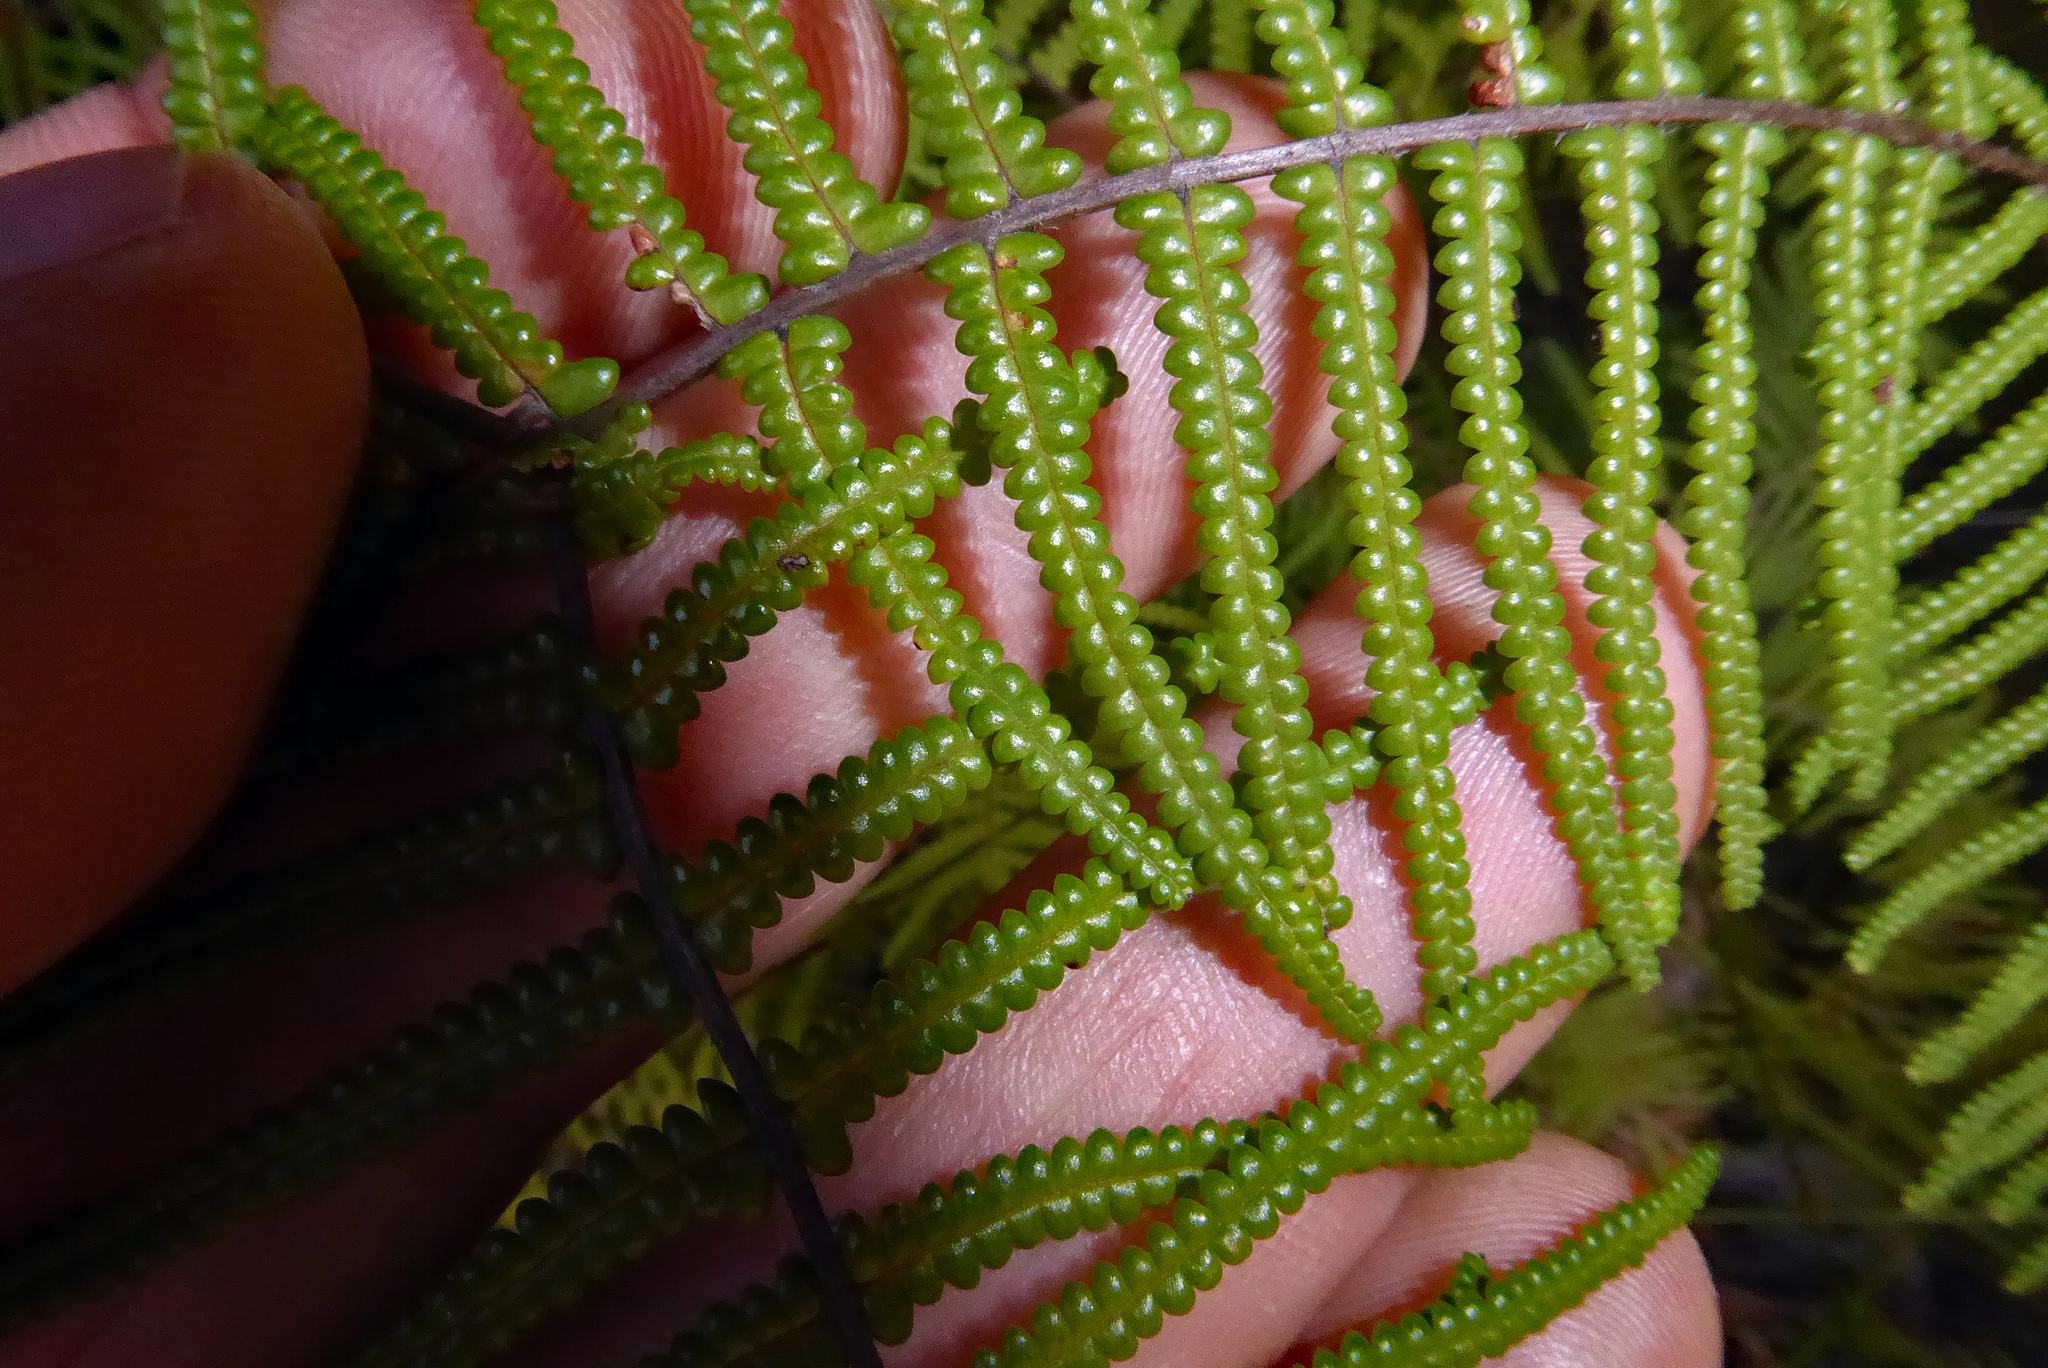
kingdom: Plantae
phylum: Tracheophyta
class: Polypodiopsida
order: Gleicheniales
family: Gleicheniaceae
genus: Gleichenia
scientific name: Gleichenia rupestris
